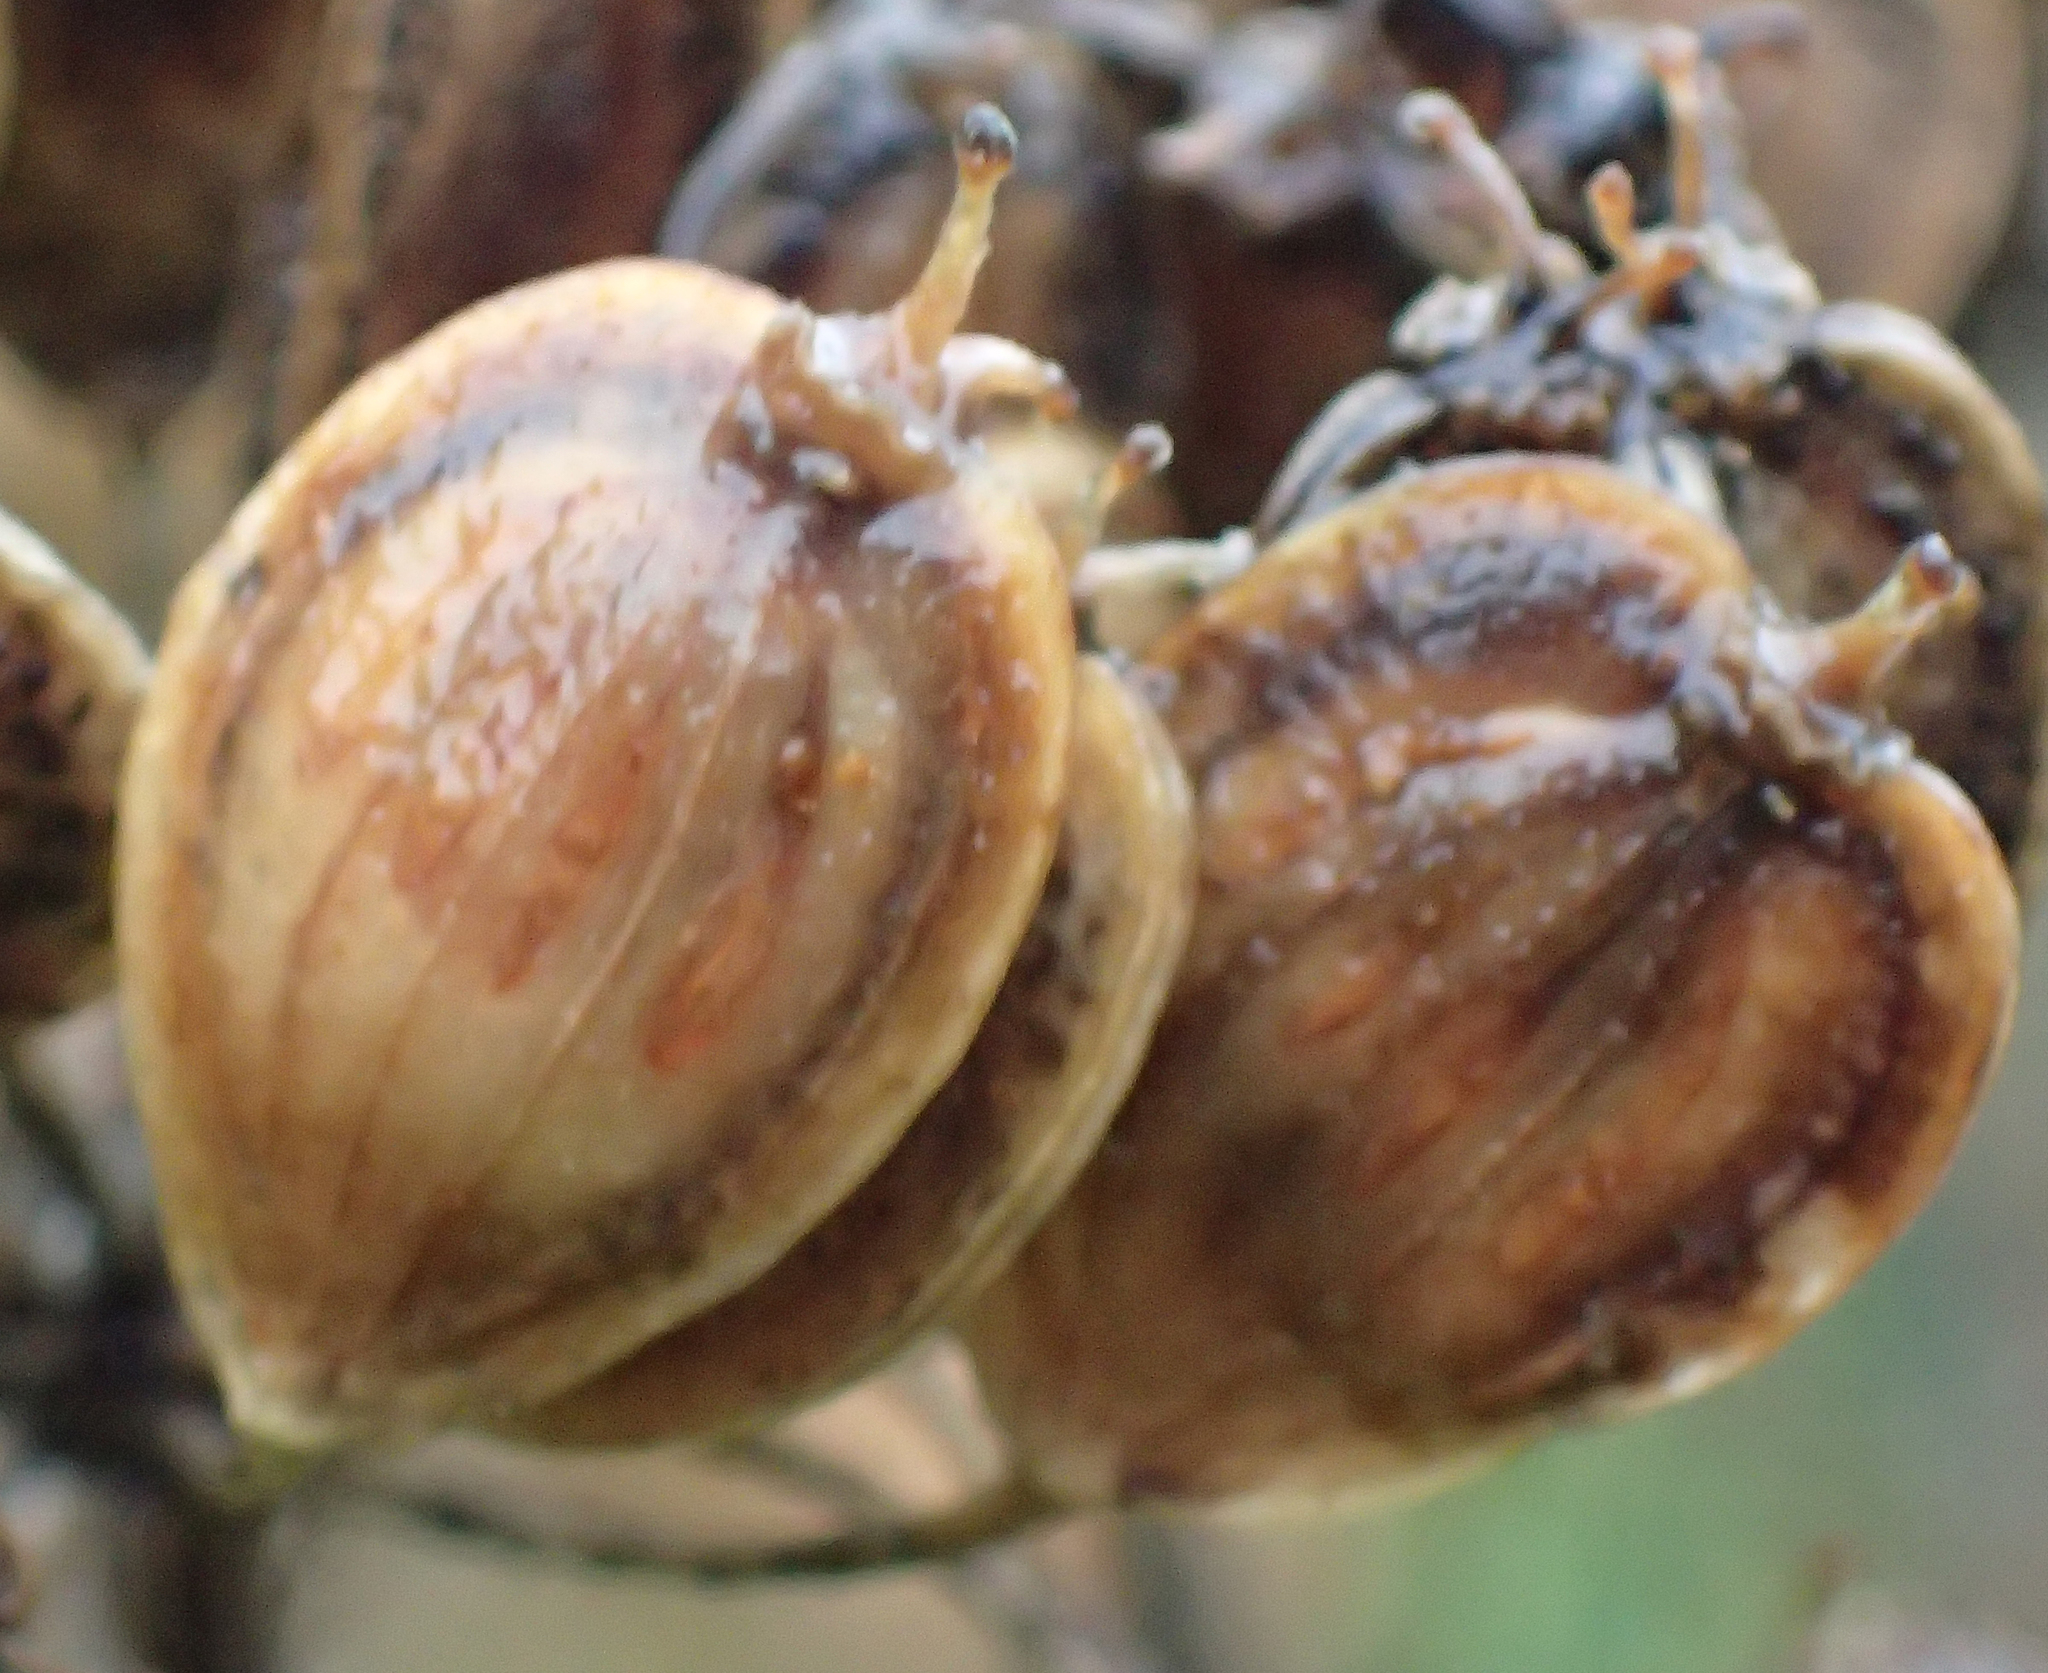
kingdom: Plantae
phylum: Tracheophyta
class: Magnoliopsida
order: Apiales
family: Apiaceae
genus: Heracleum
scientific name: Heracleum maximum
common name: American cow parsnip
